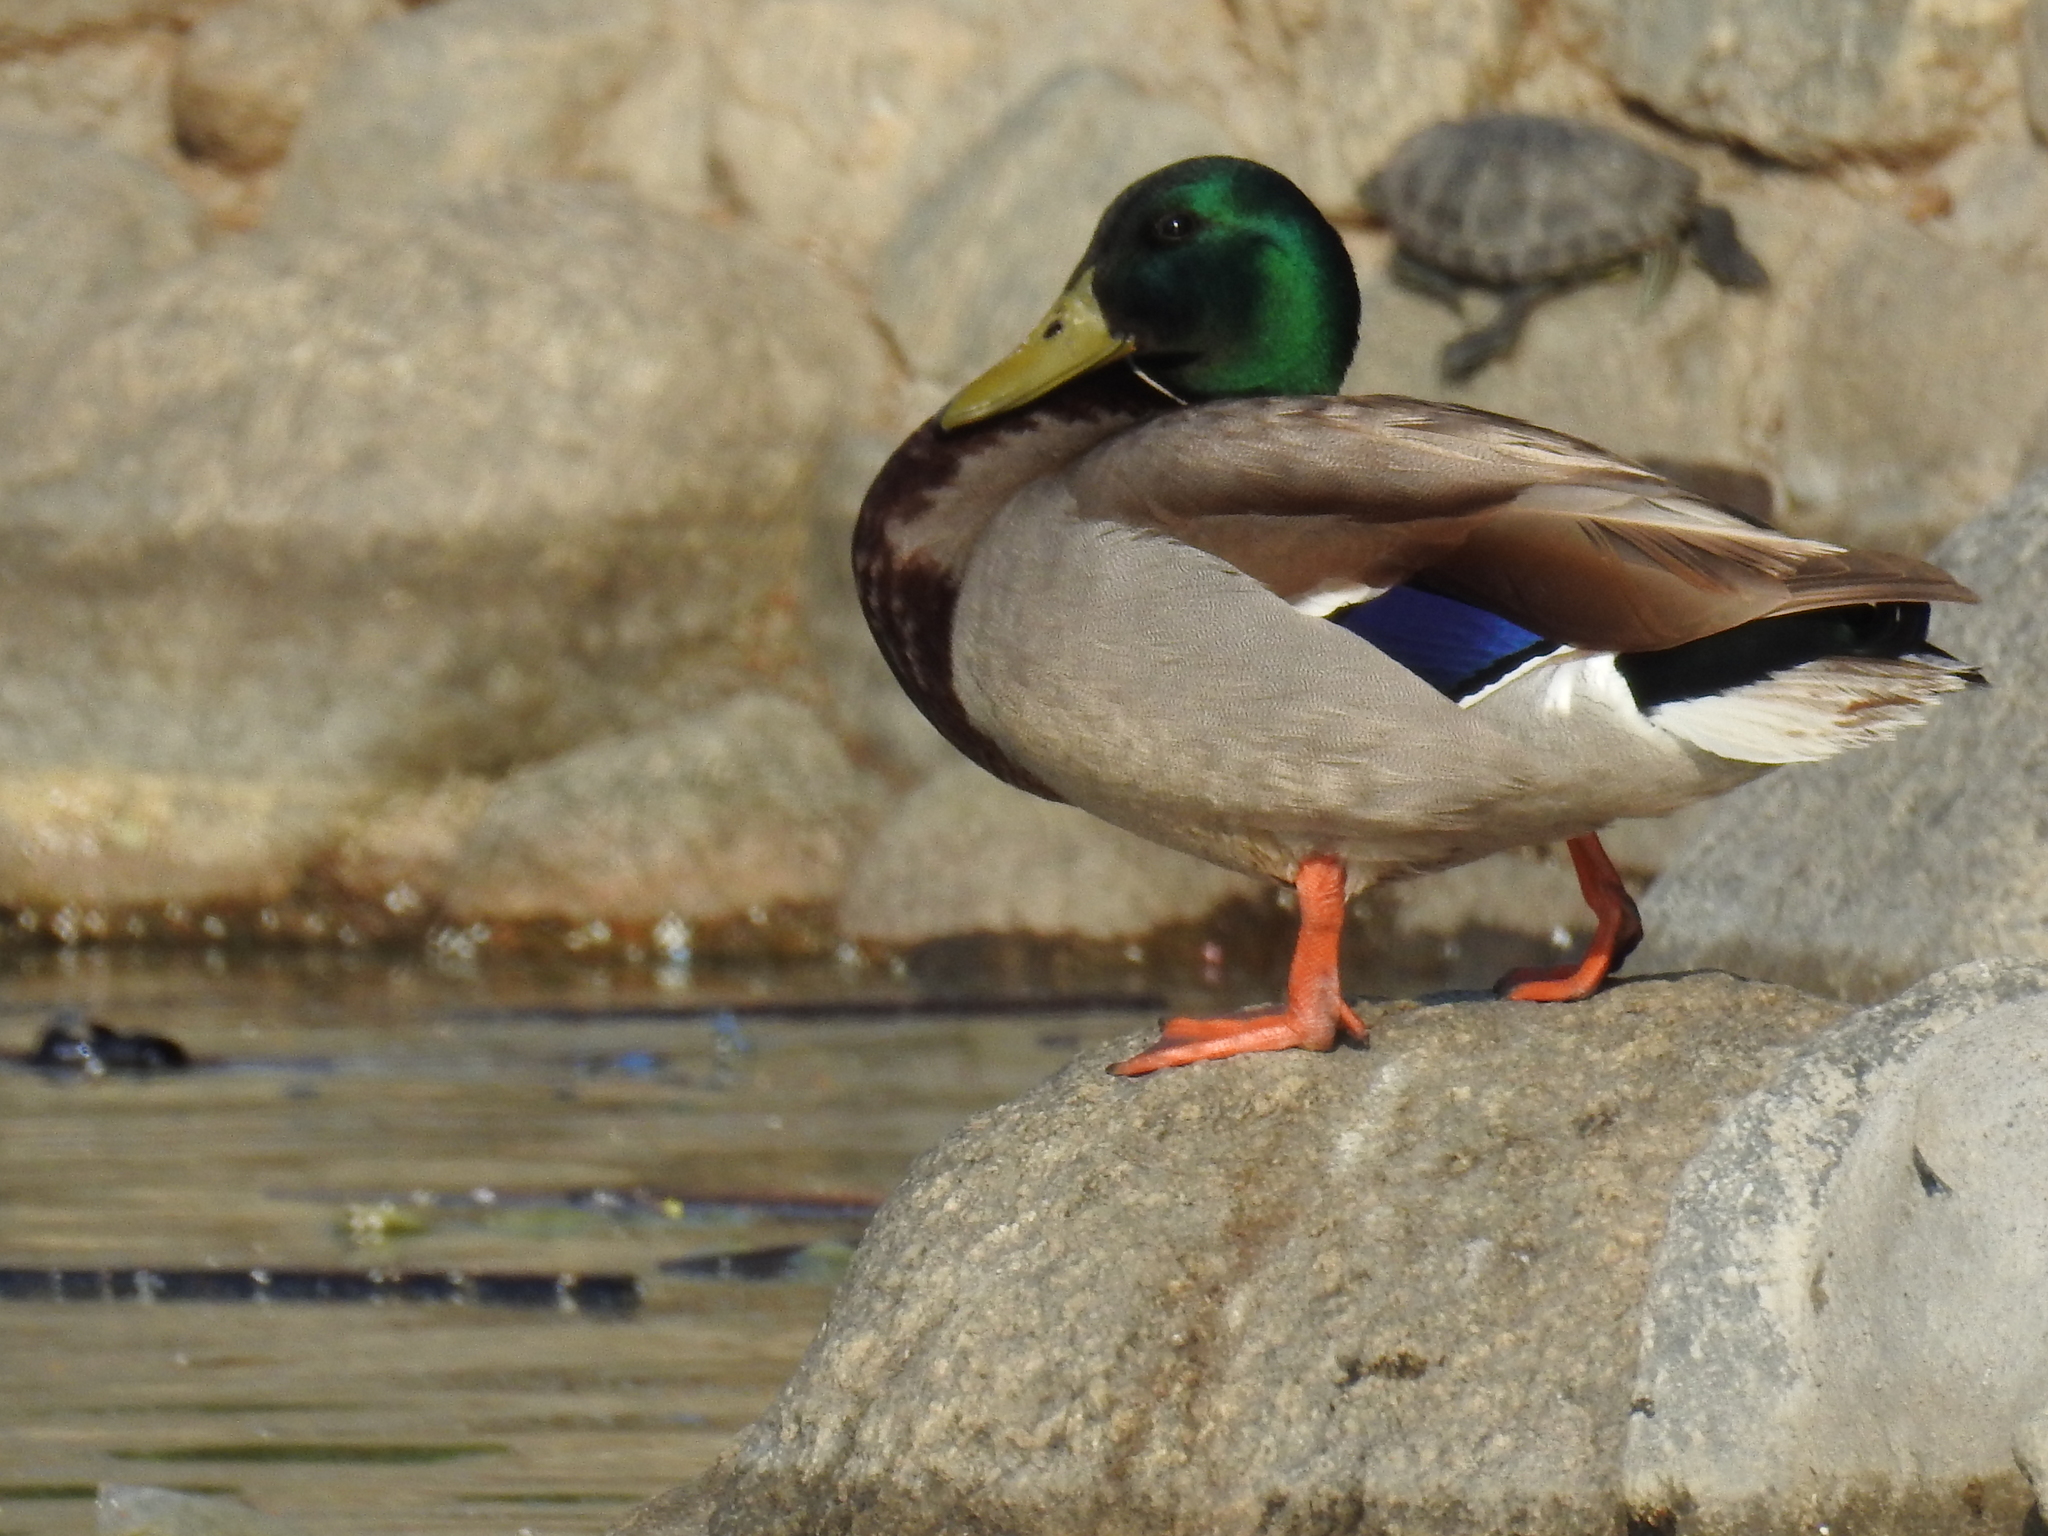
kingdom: Animalia
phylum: Chordata
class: Aves
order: Anseriformes
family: Anatidae
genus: Anas
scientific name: Anas platyrhynchos
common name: Mallard
